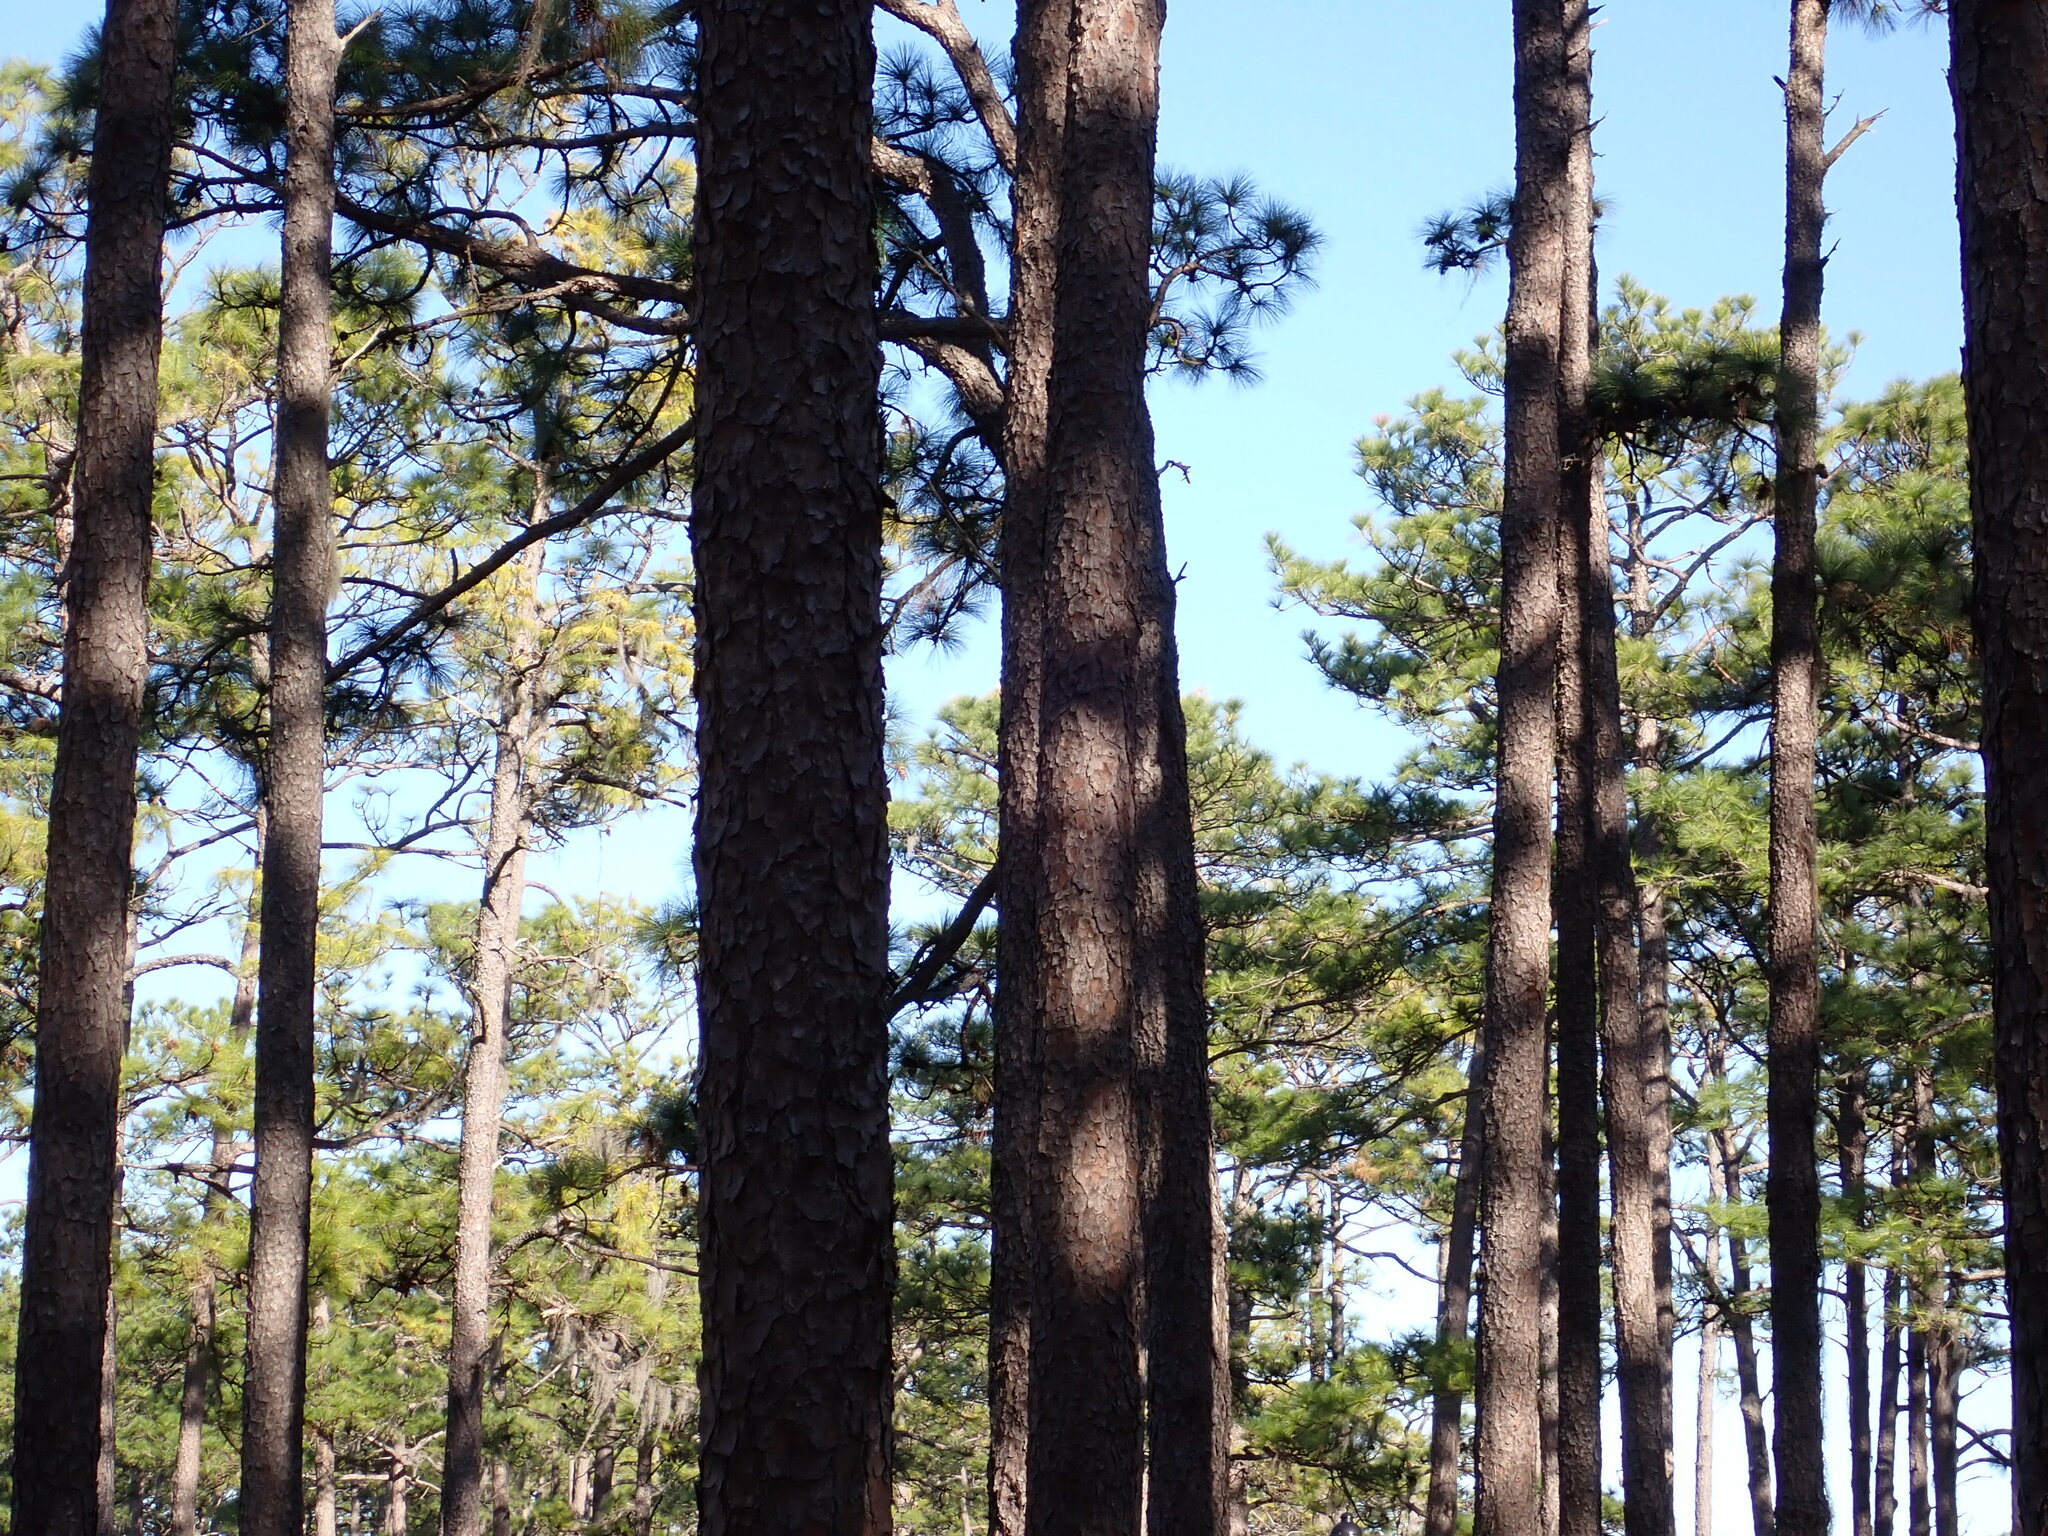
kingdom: Plantae
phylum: Tracheophyta
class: Pinopsida
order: Pinales
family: Pinaceae
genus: Pinus
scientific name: Pinus palustris
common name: Longleaf pine
